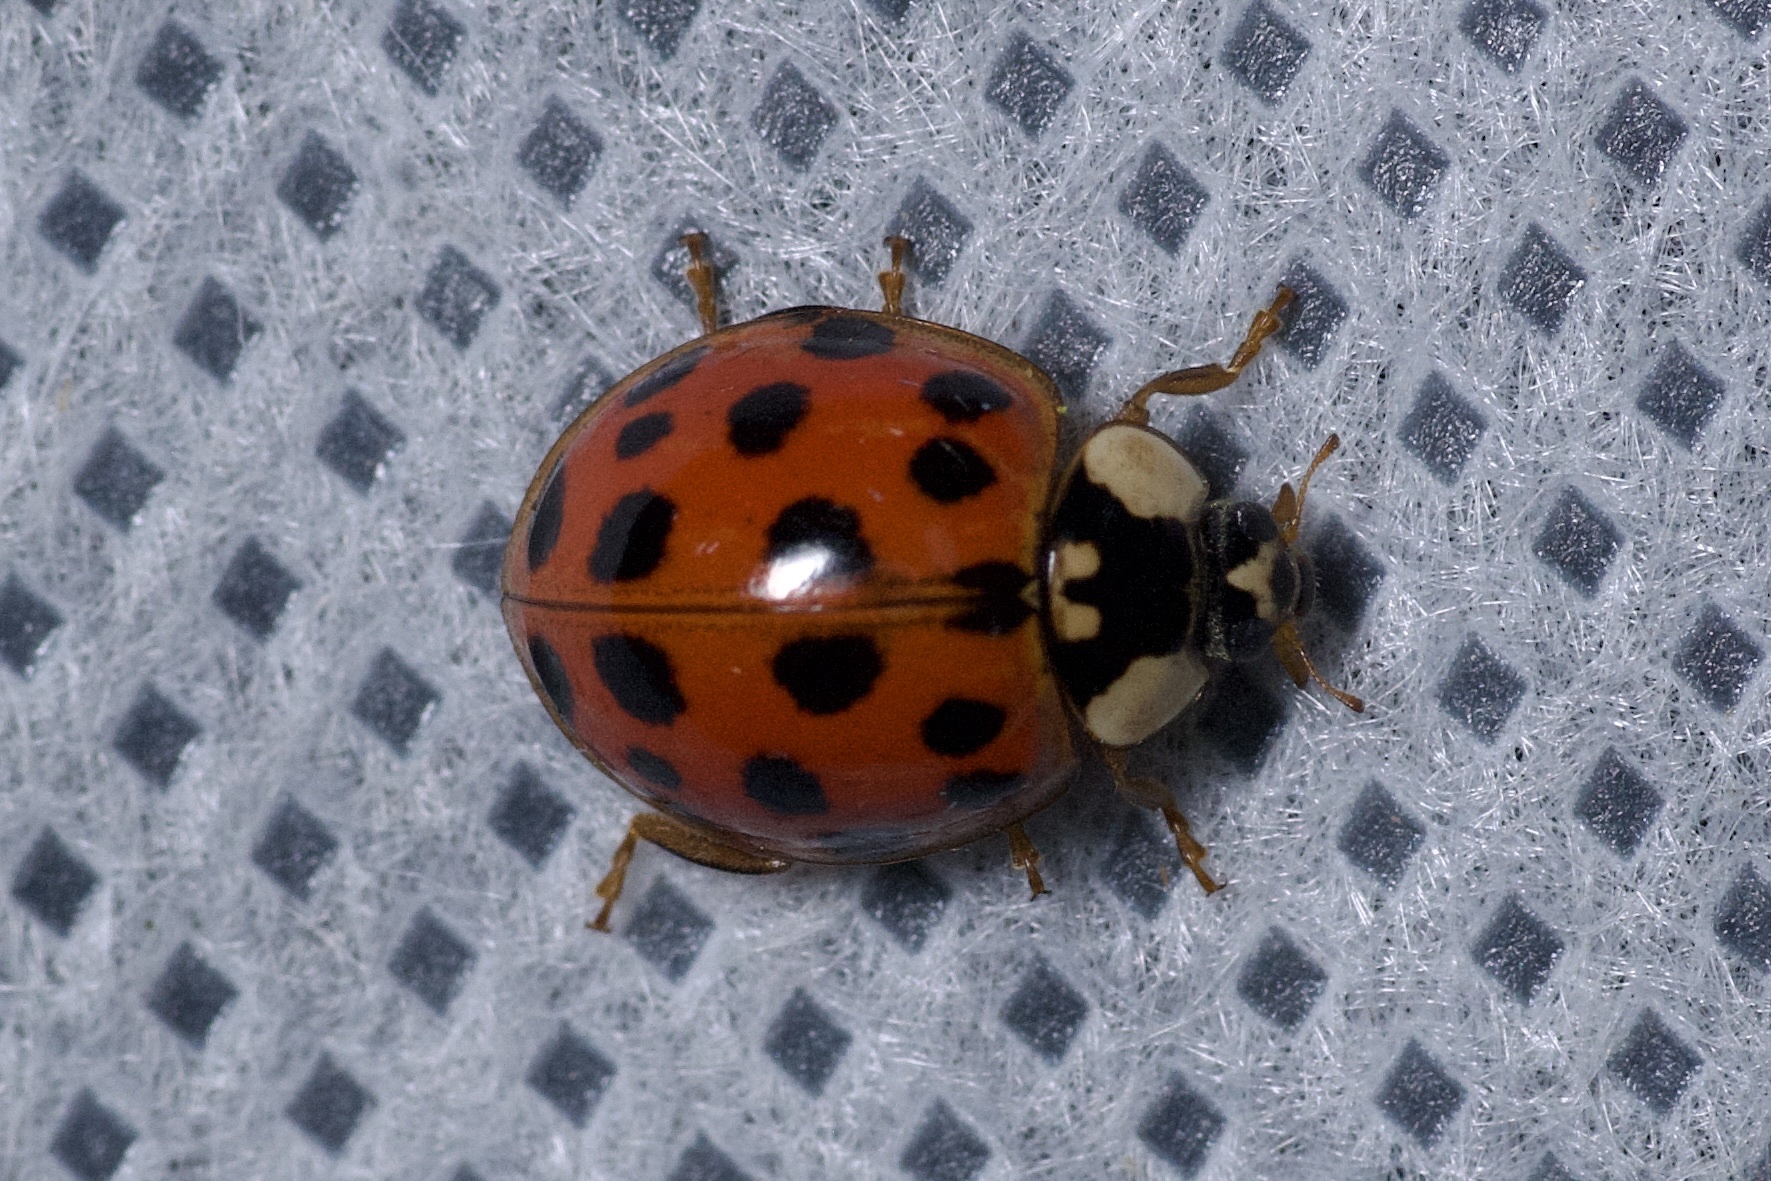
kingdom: Animalia
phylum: Arthropoda
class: Insecta
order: Coleoptera
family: Coccinellidae
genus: Harmonia
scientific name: Harmonia axyridis
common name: Harlequin ladybird
